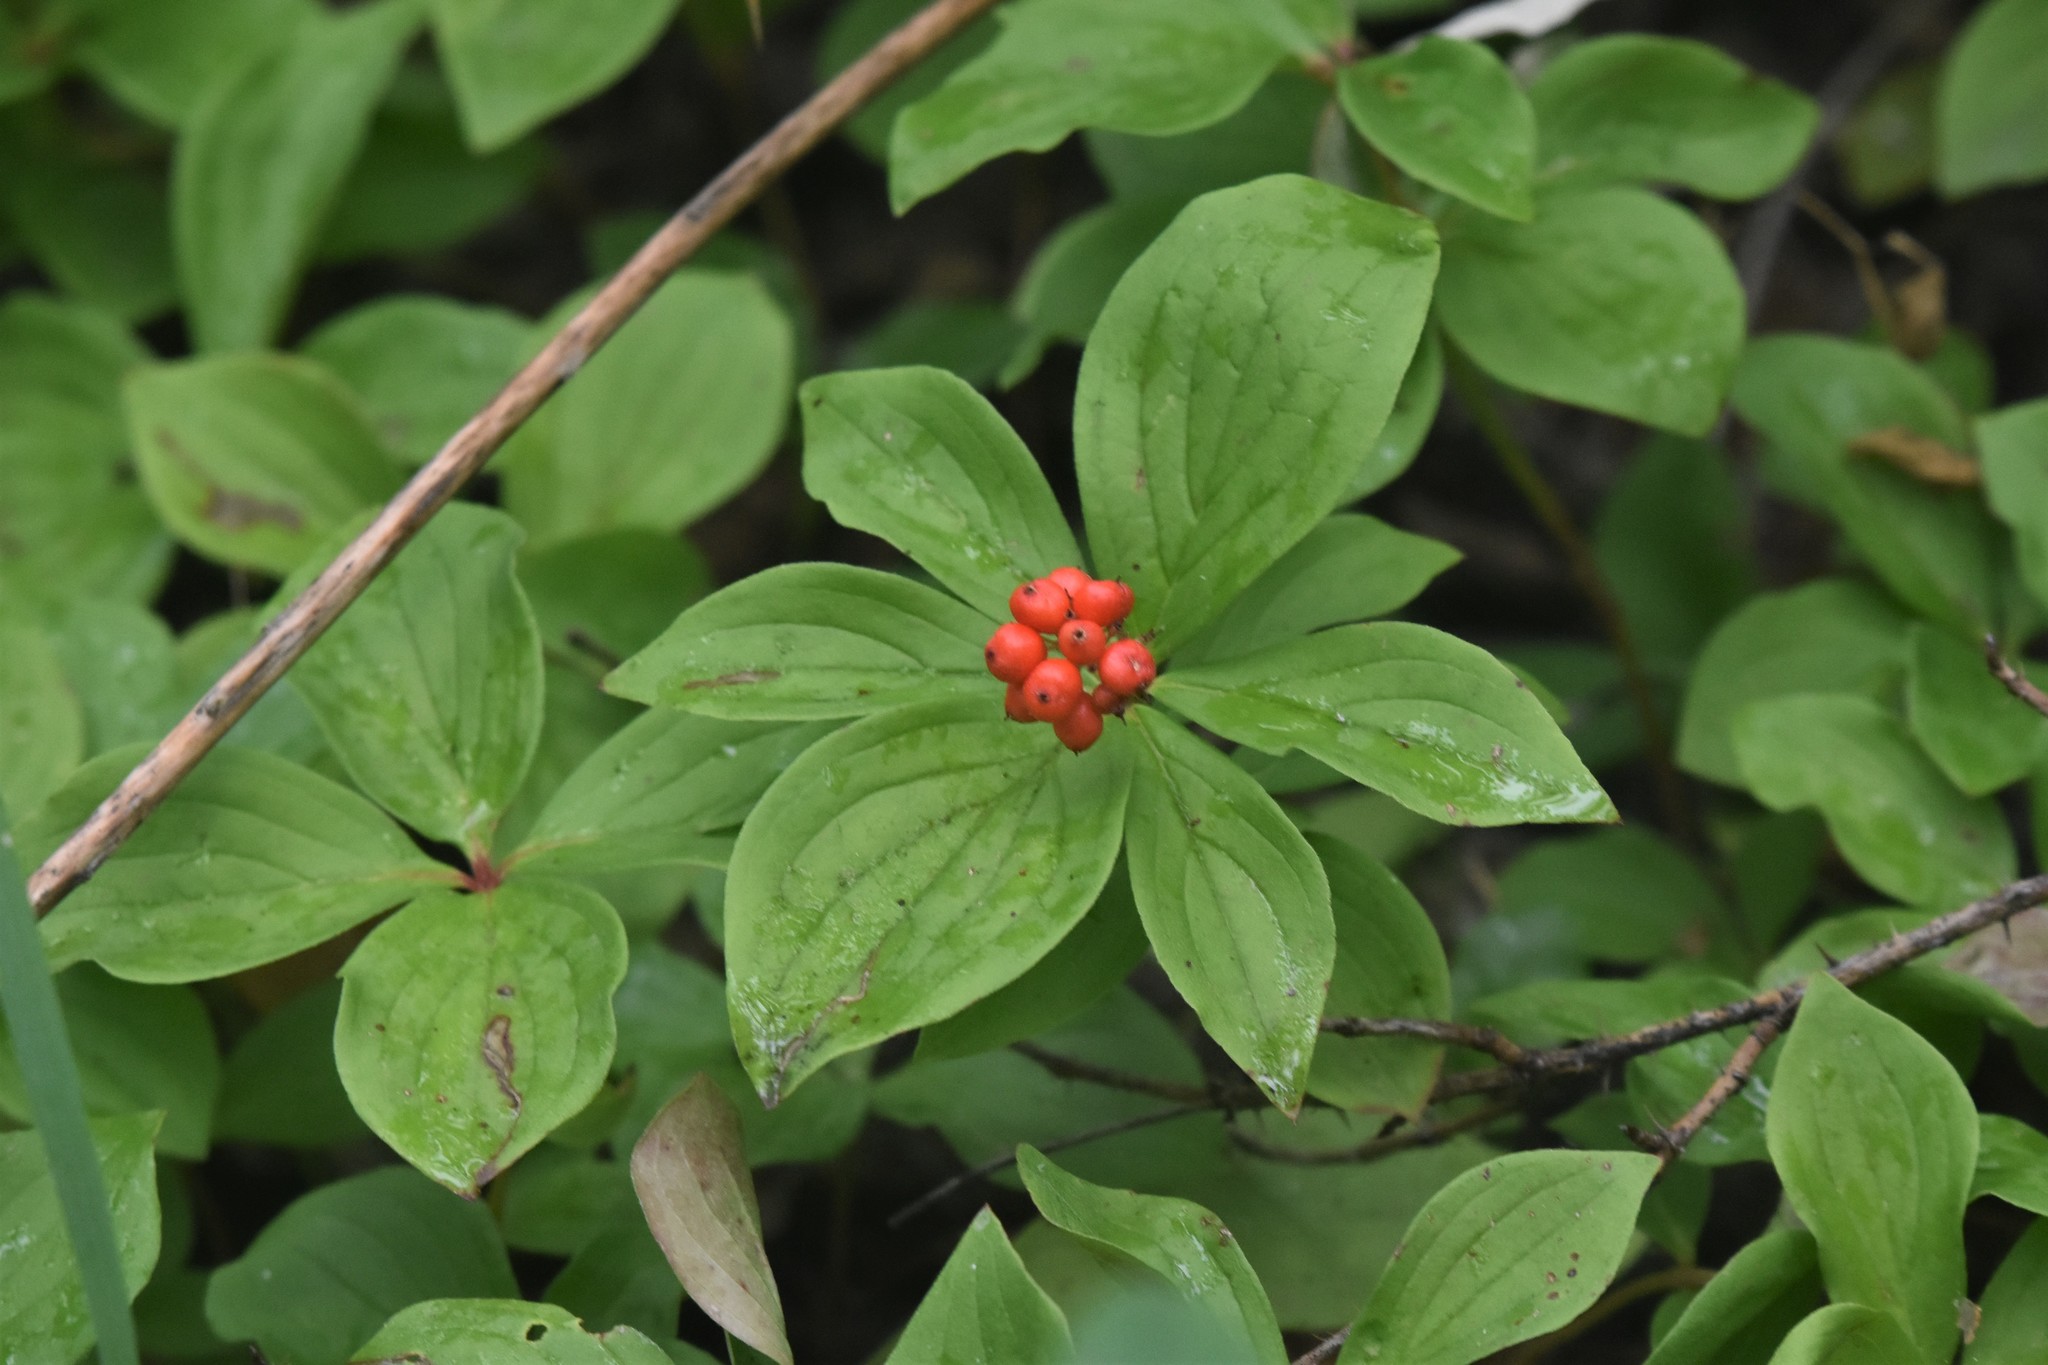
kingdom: Plantae
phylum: Tracheophyta
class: Magnoliopsida
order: Cornales
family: Cornaceae
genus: Cornus
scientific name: Cornus canadensis
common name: Creeping dogwood
